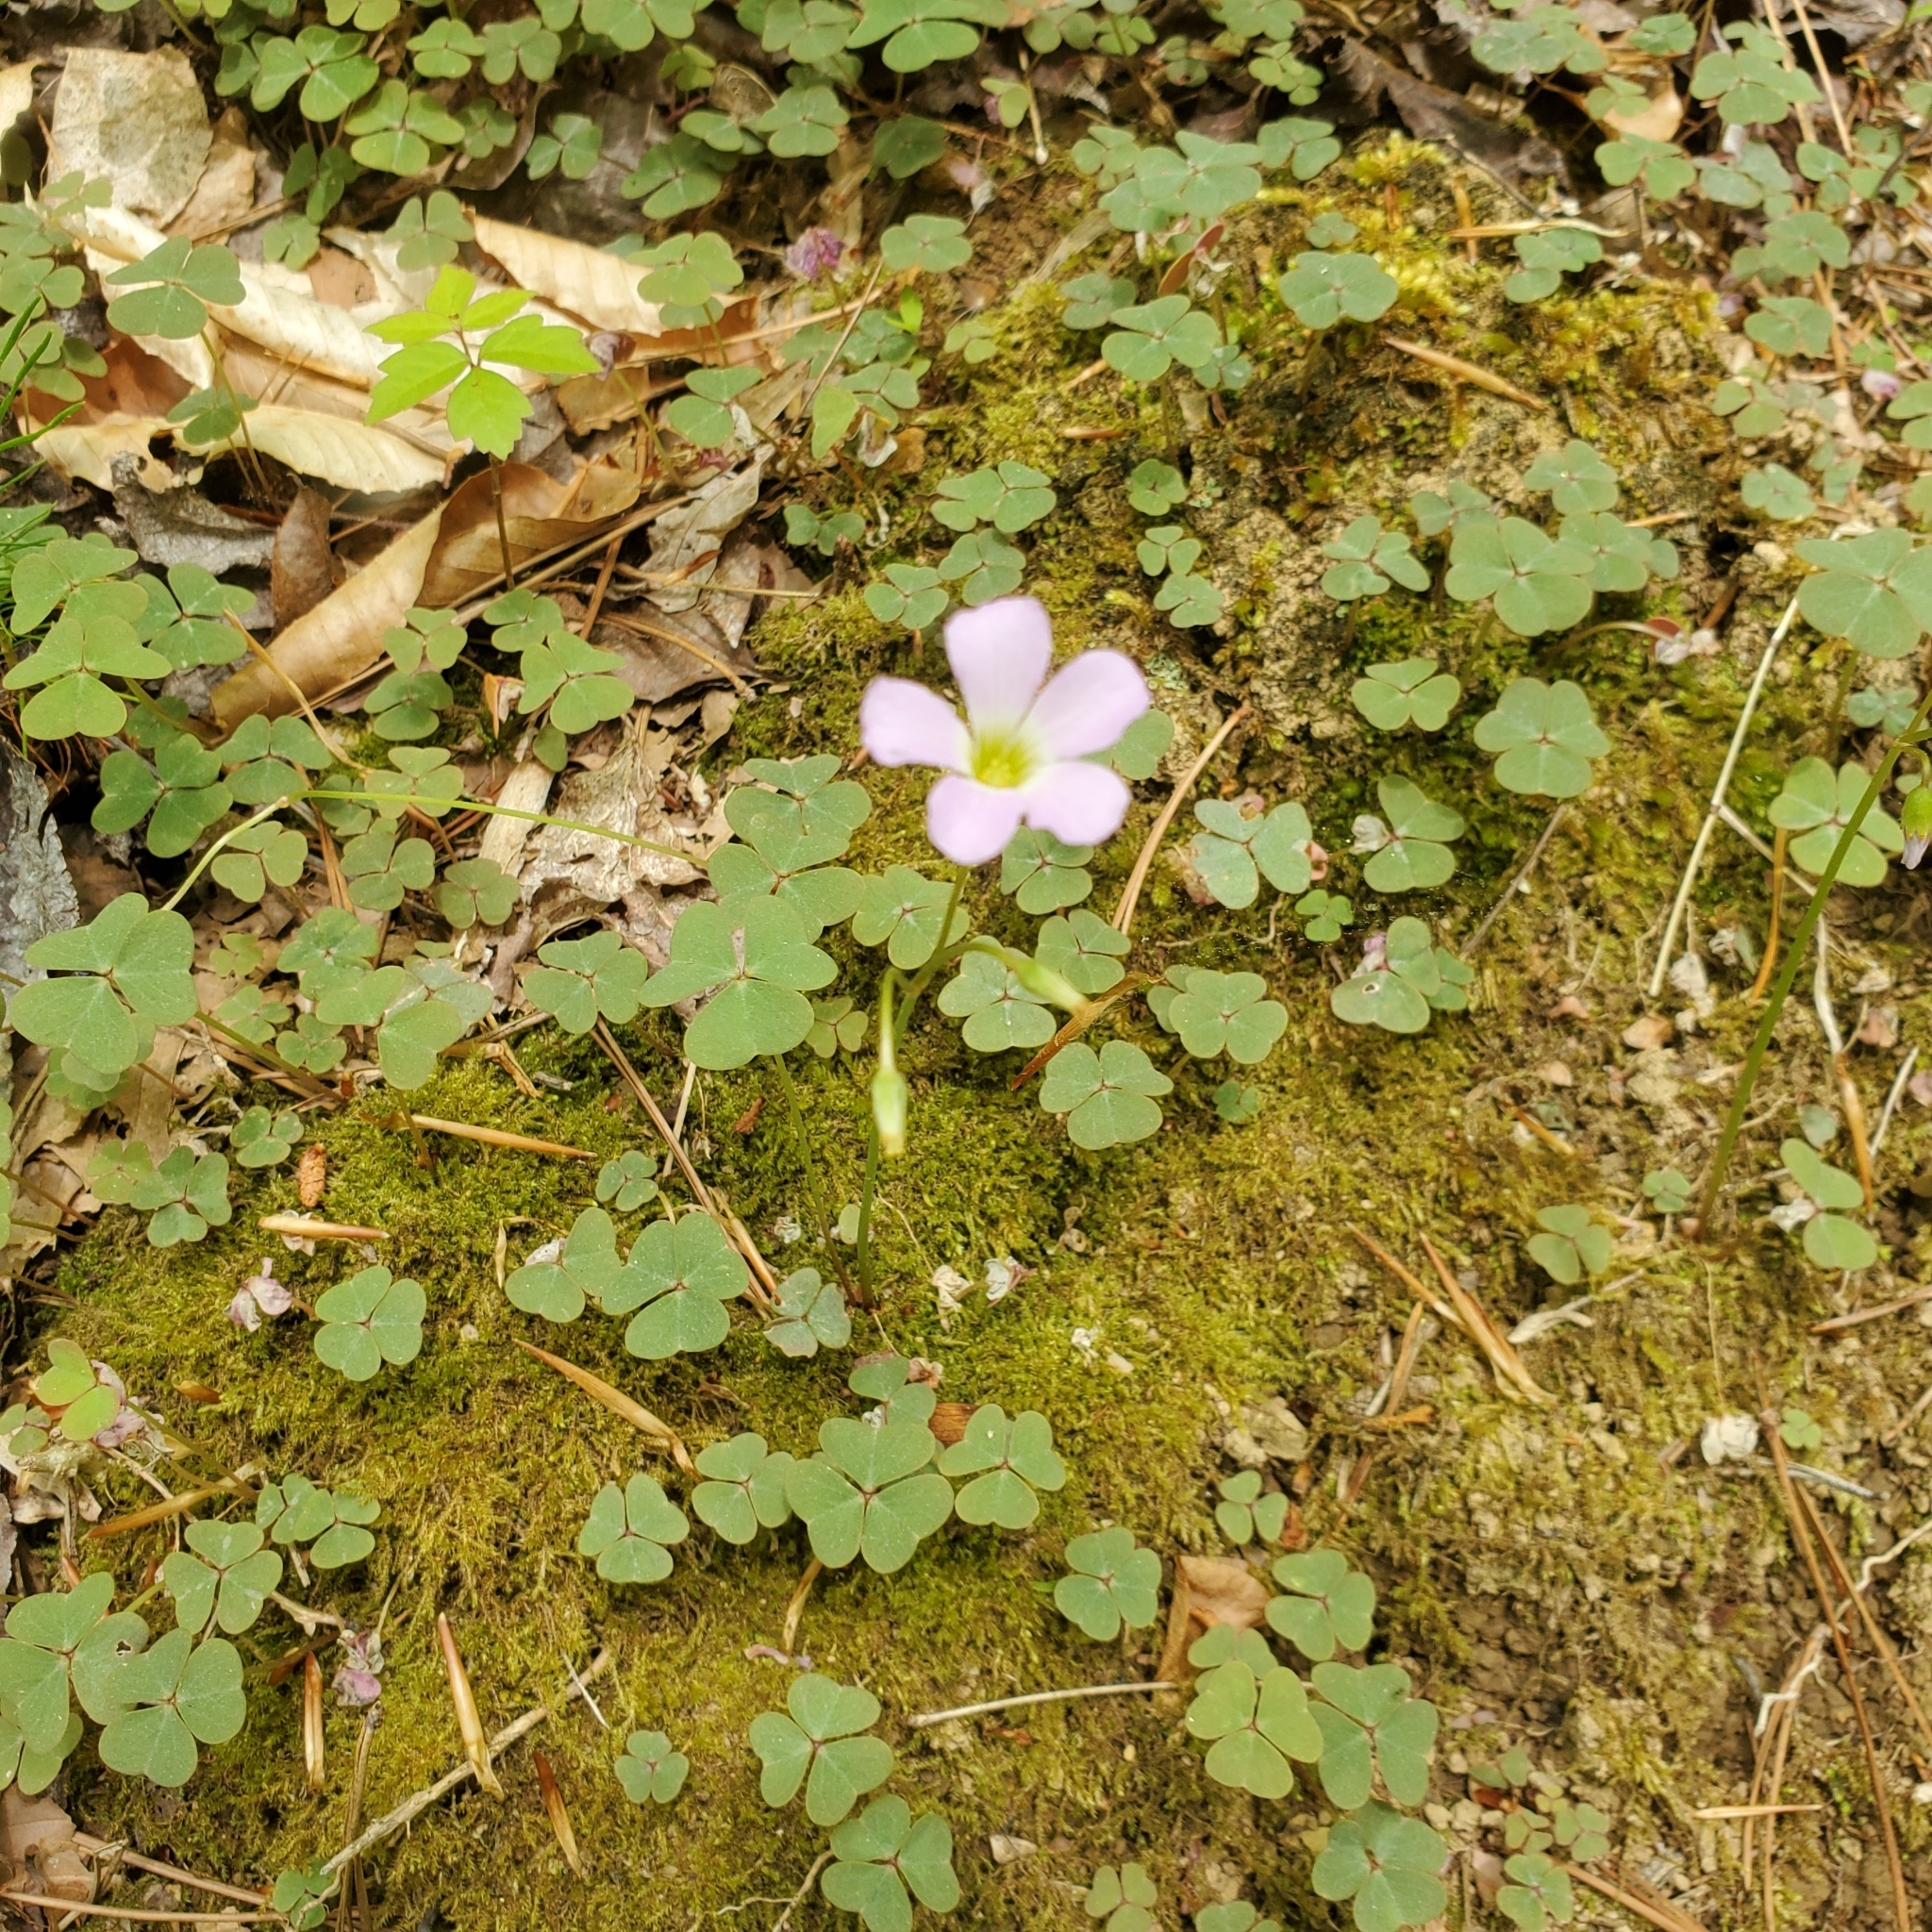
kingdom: Plantae
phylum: Tracheophyta
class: Magnoliopsida
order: Oxalidales
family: Oxalidaceae
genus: Oxalis
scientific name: Oxalis violacea
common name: Violet wood-sorrel
